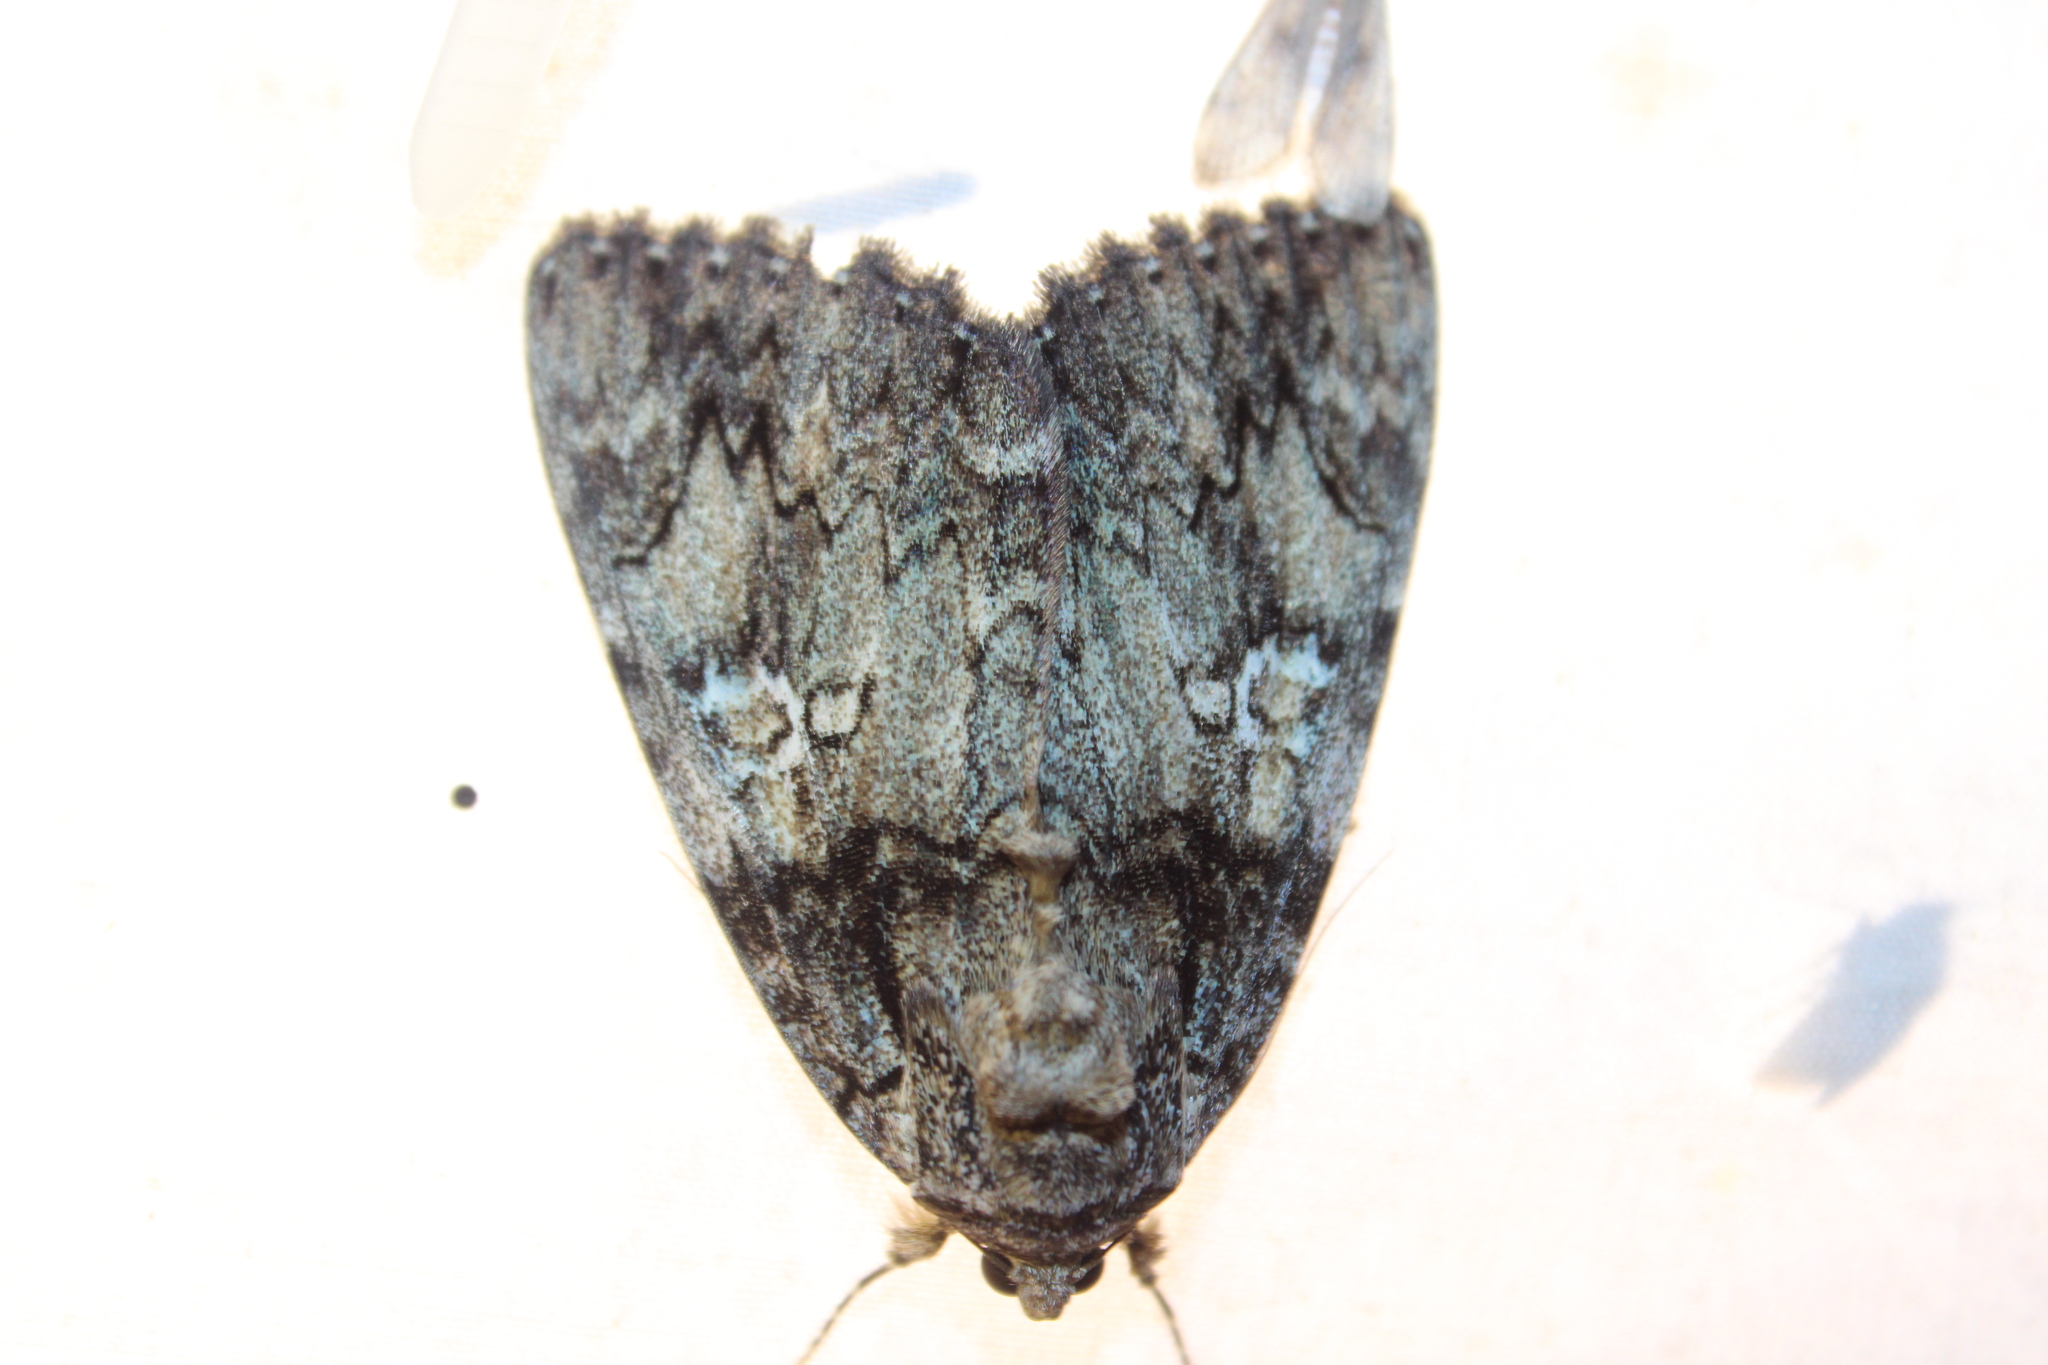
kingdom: Animalia
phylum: Arthropoda
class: Insecta
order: Lepidoptera
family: Erebidae
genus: Catocala
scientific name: Catocala ilia
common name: Ilia underwing
